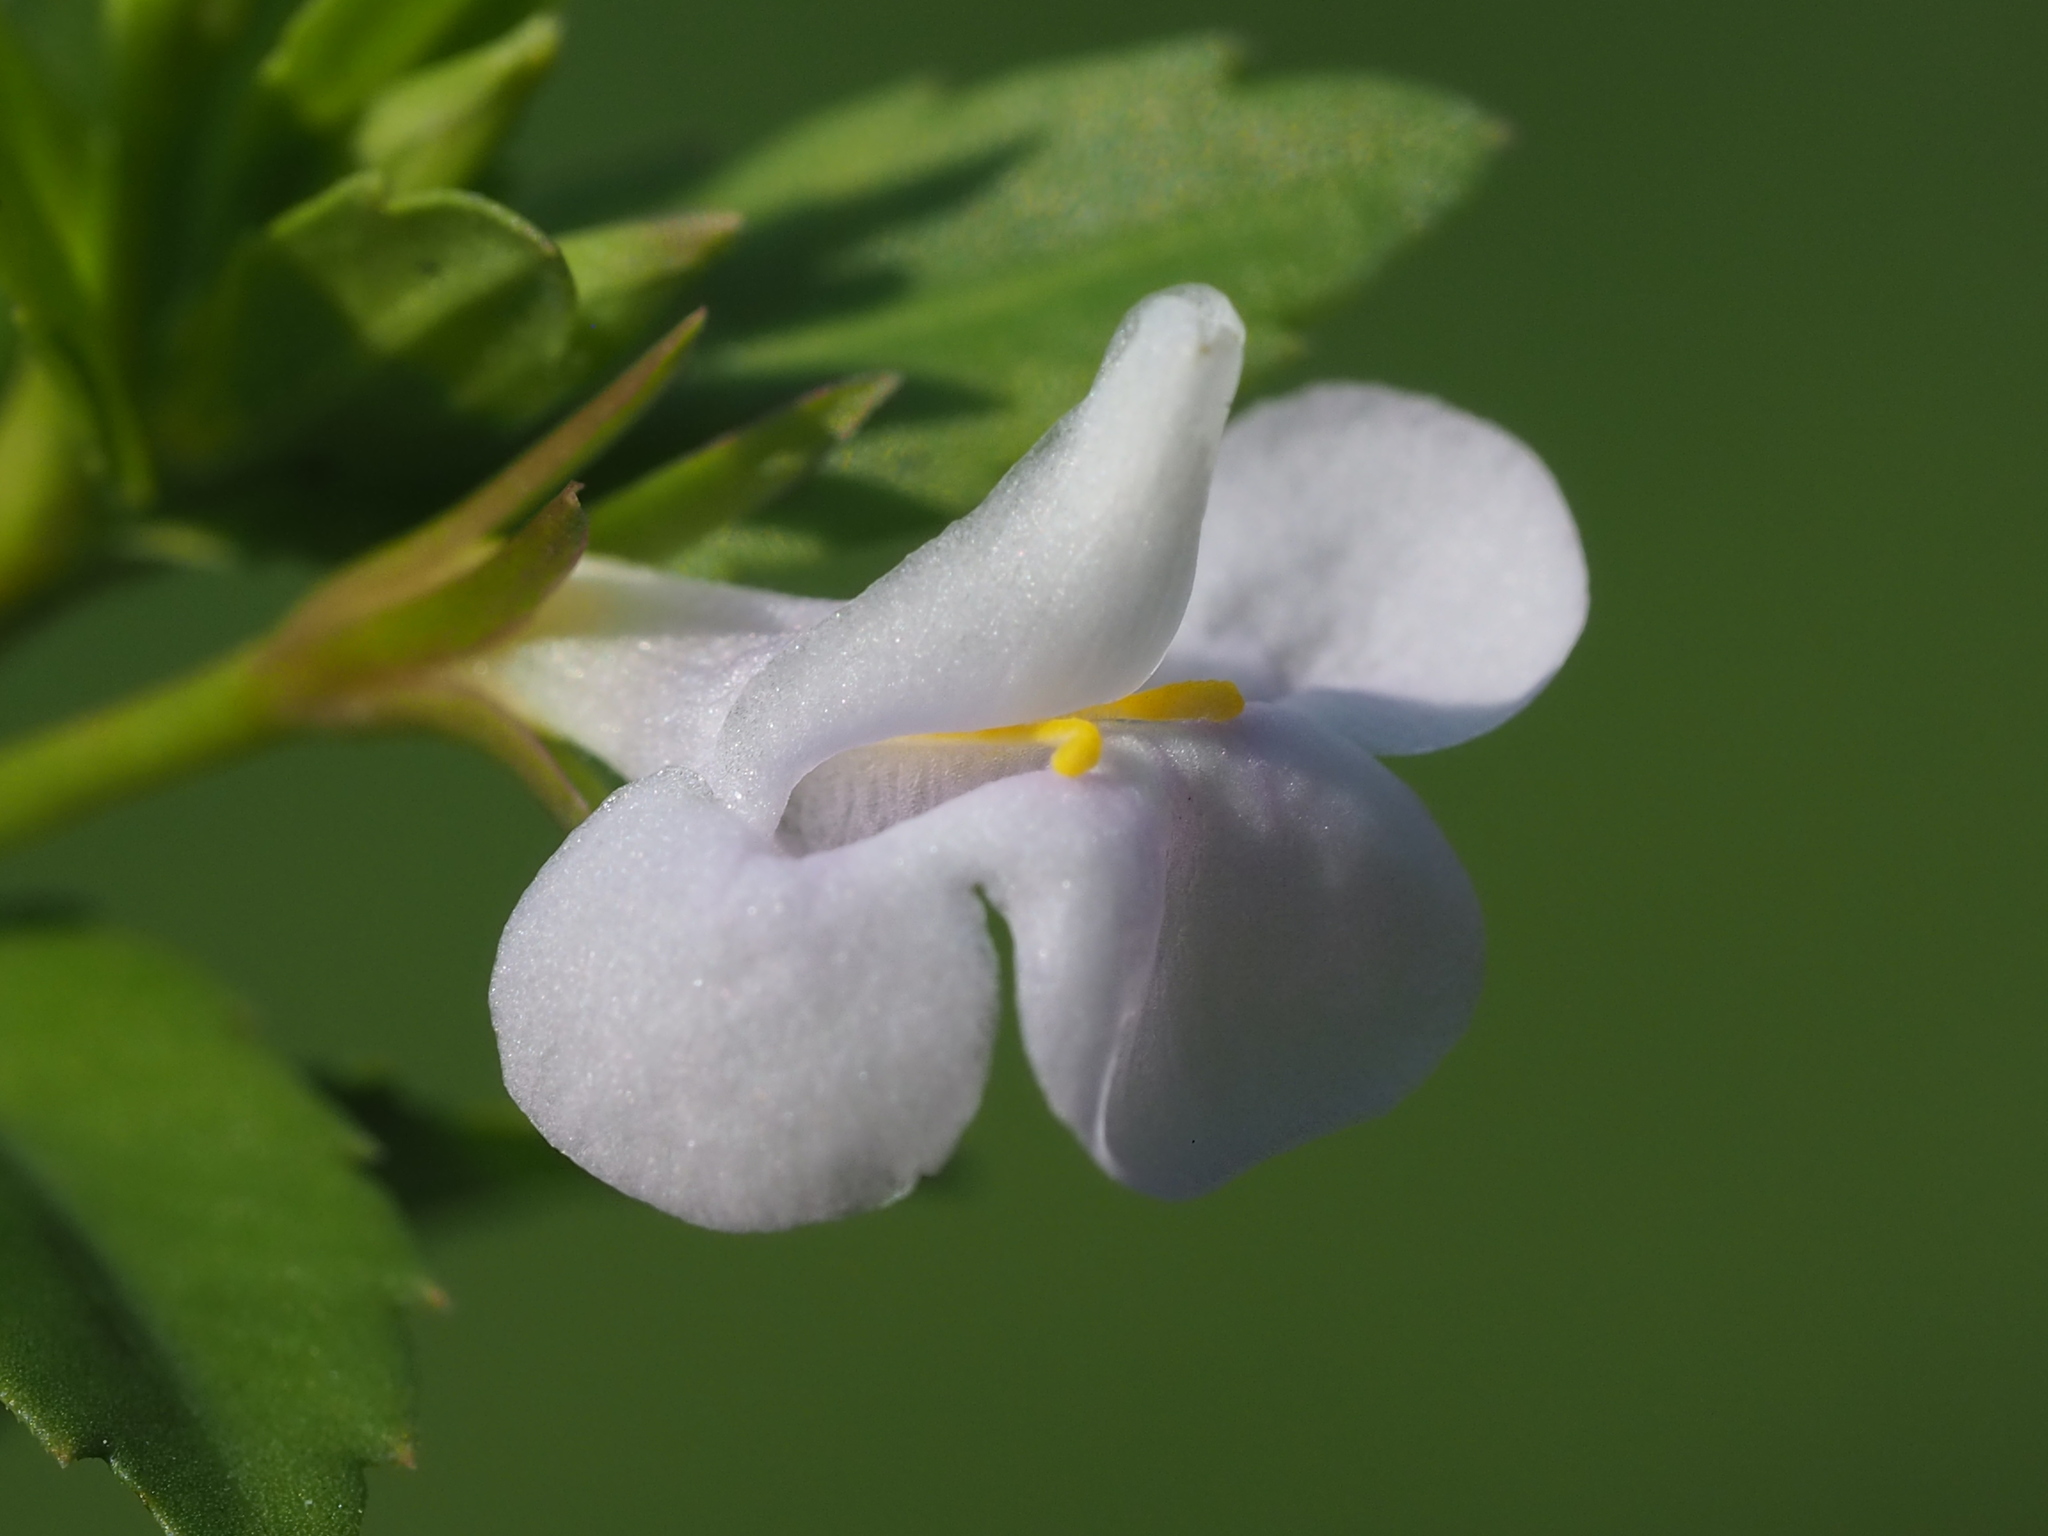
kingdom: Plantae
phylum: Tracheophyta
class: Magnoliopsida
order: Lamiales
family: Linderniaceae
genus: Bonnaya
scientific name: Bonnaya antipoda
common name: Sparrow false pimpernel
